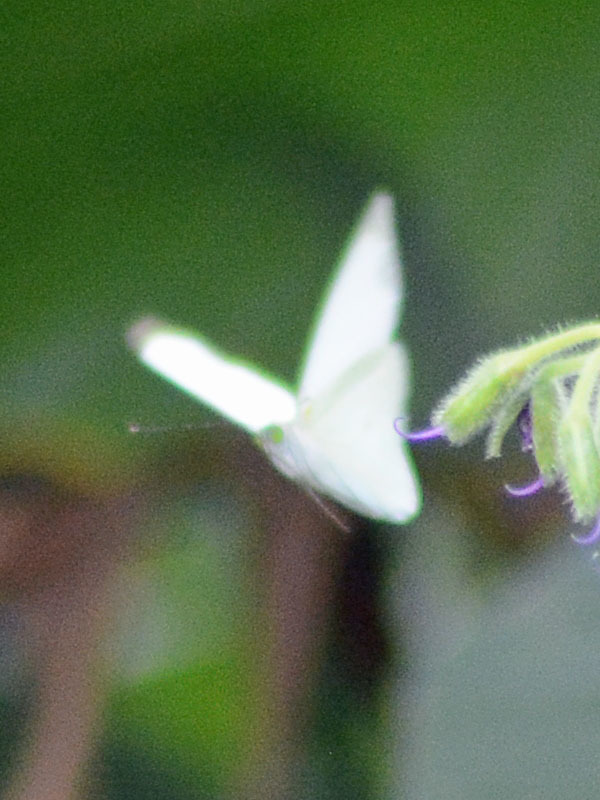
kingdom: Animalia
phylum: Arthropoda
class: Insecta
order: Lepidoptera
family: Pieridae
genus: Leptophobia
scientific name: Leptophobia aripa
